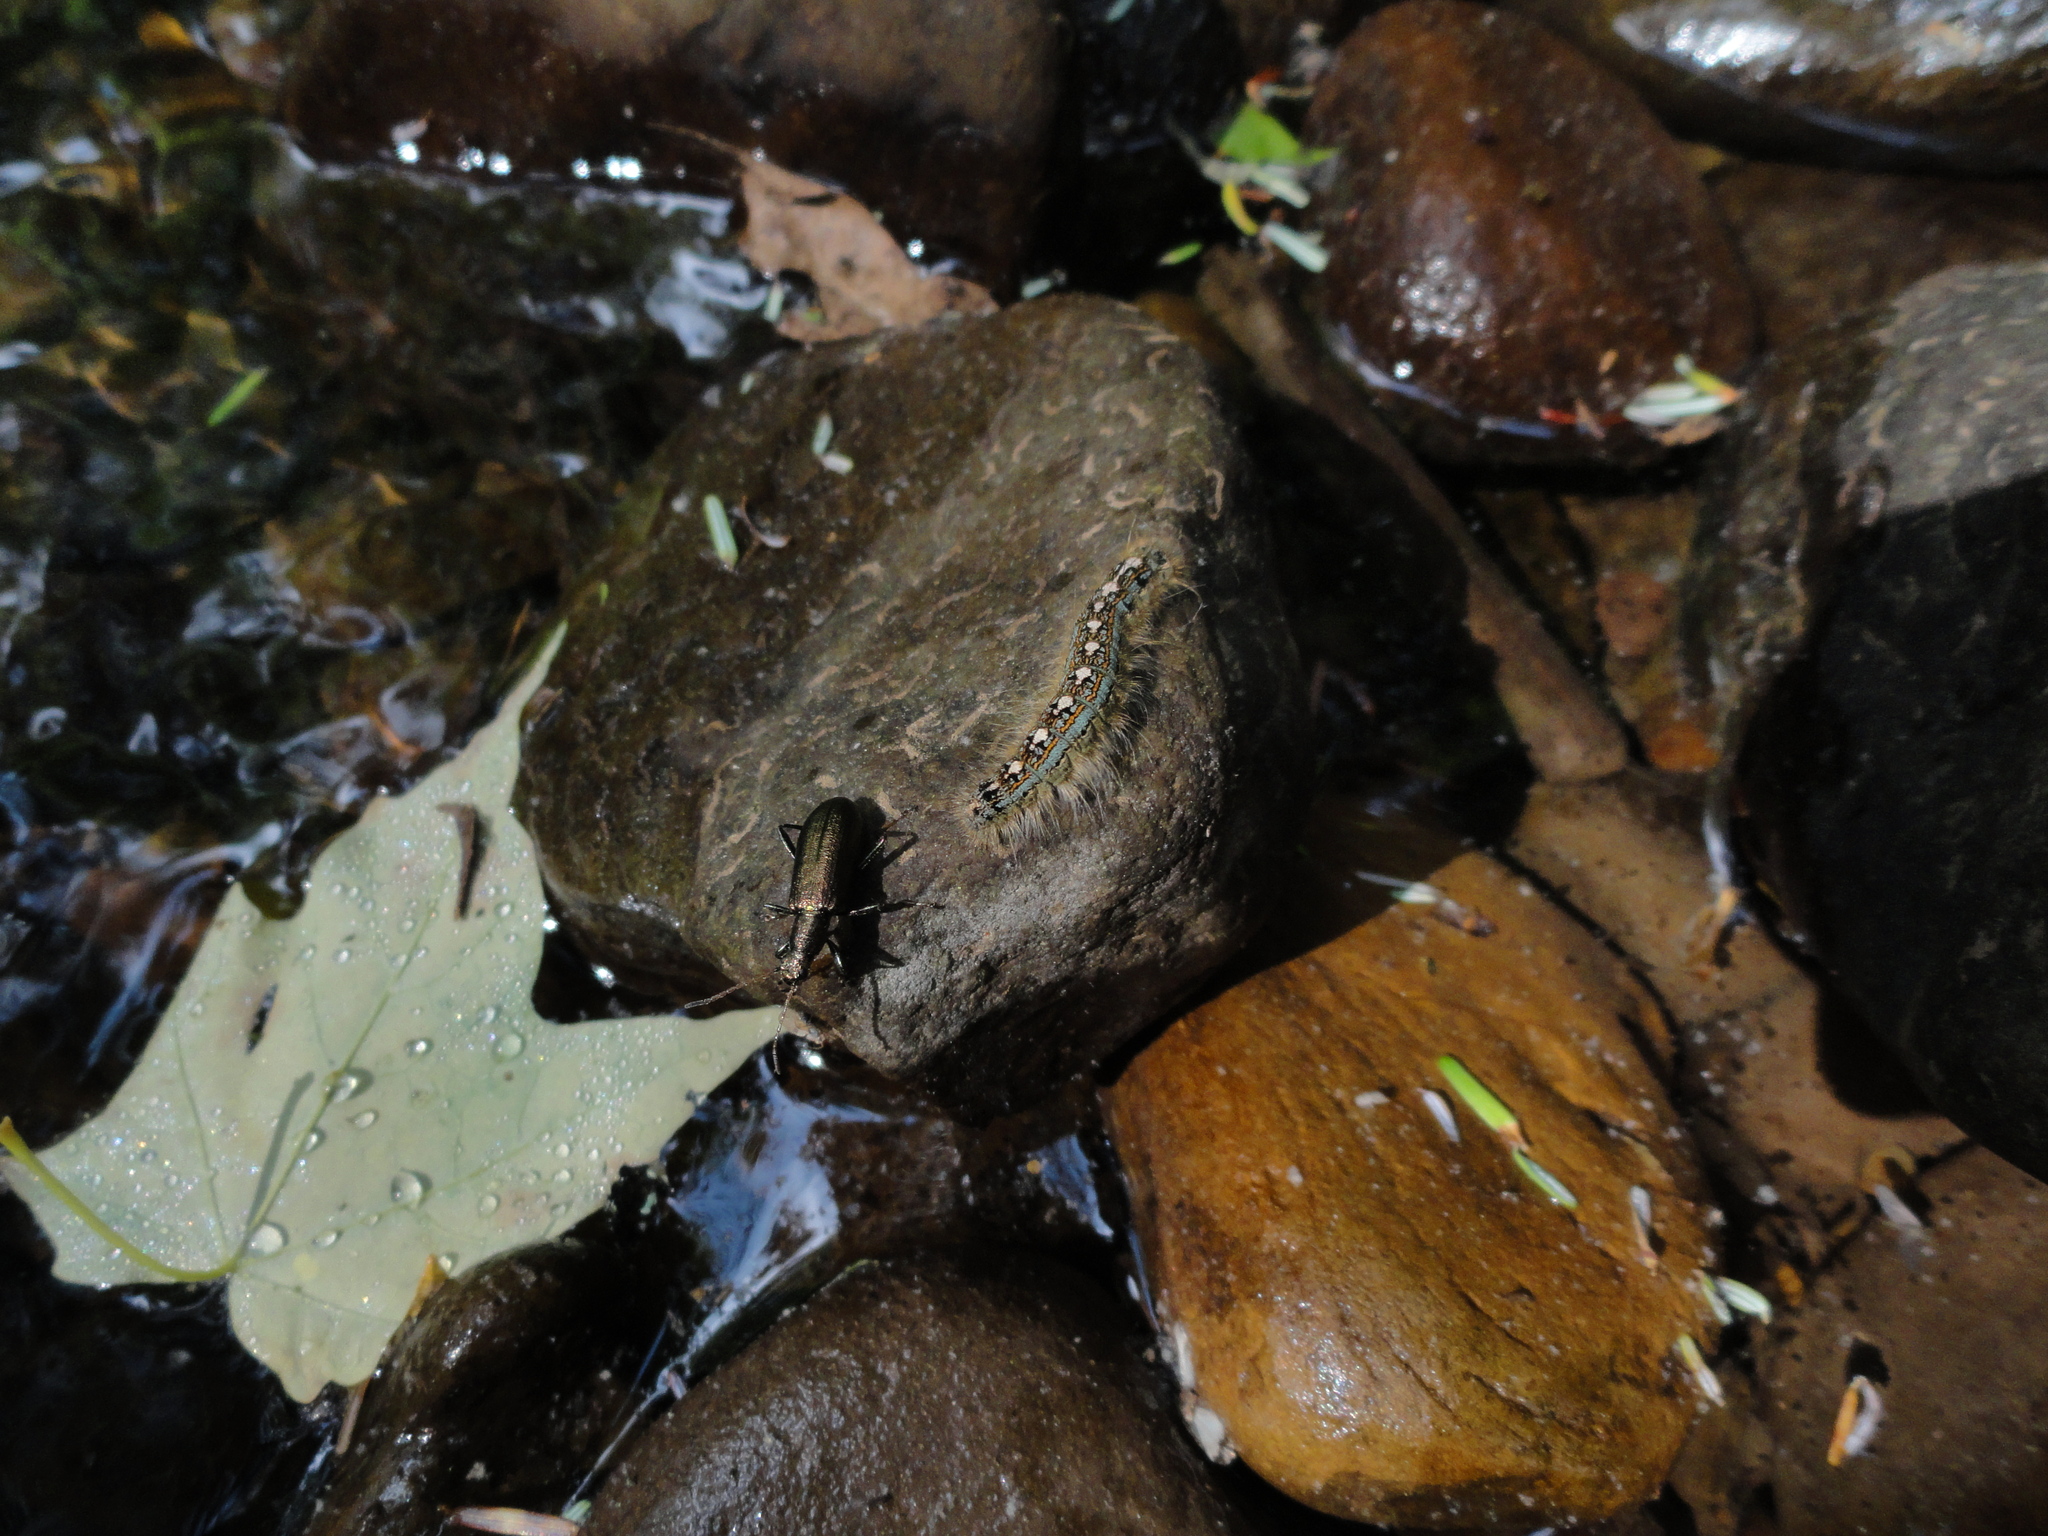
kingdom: Animalia
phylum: Arthropoda
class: Insecta
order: Lepidoptera
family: Lasiocampidae
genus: Malacosoma
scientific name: Malacosoma disstria
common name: Forest tent caterpillar
